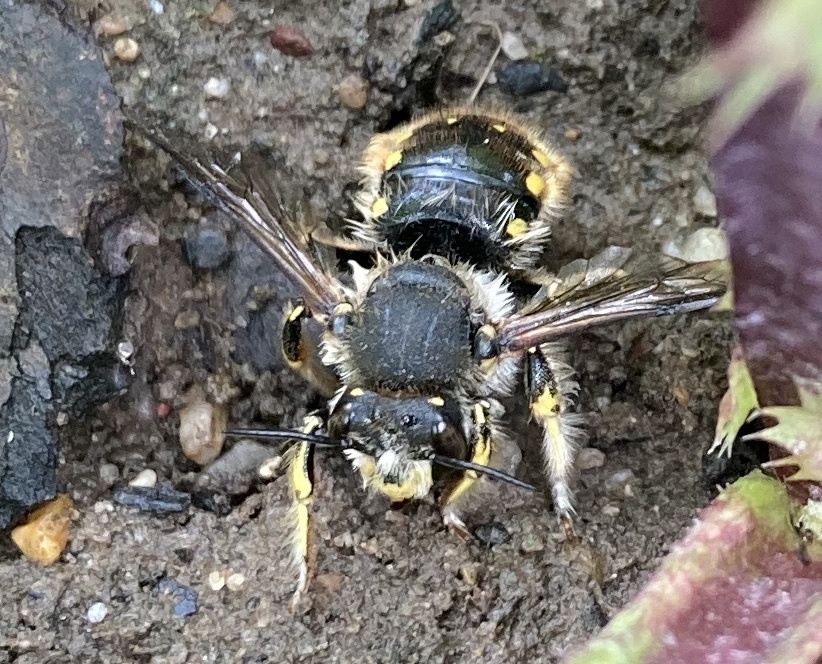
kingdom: Animalia
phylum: Arthropoda
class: Insecta
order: Hymenoptera
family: Megachilidae
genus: Anthidium
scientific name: Anthidium manicatum
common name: Wool carder bee
